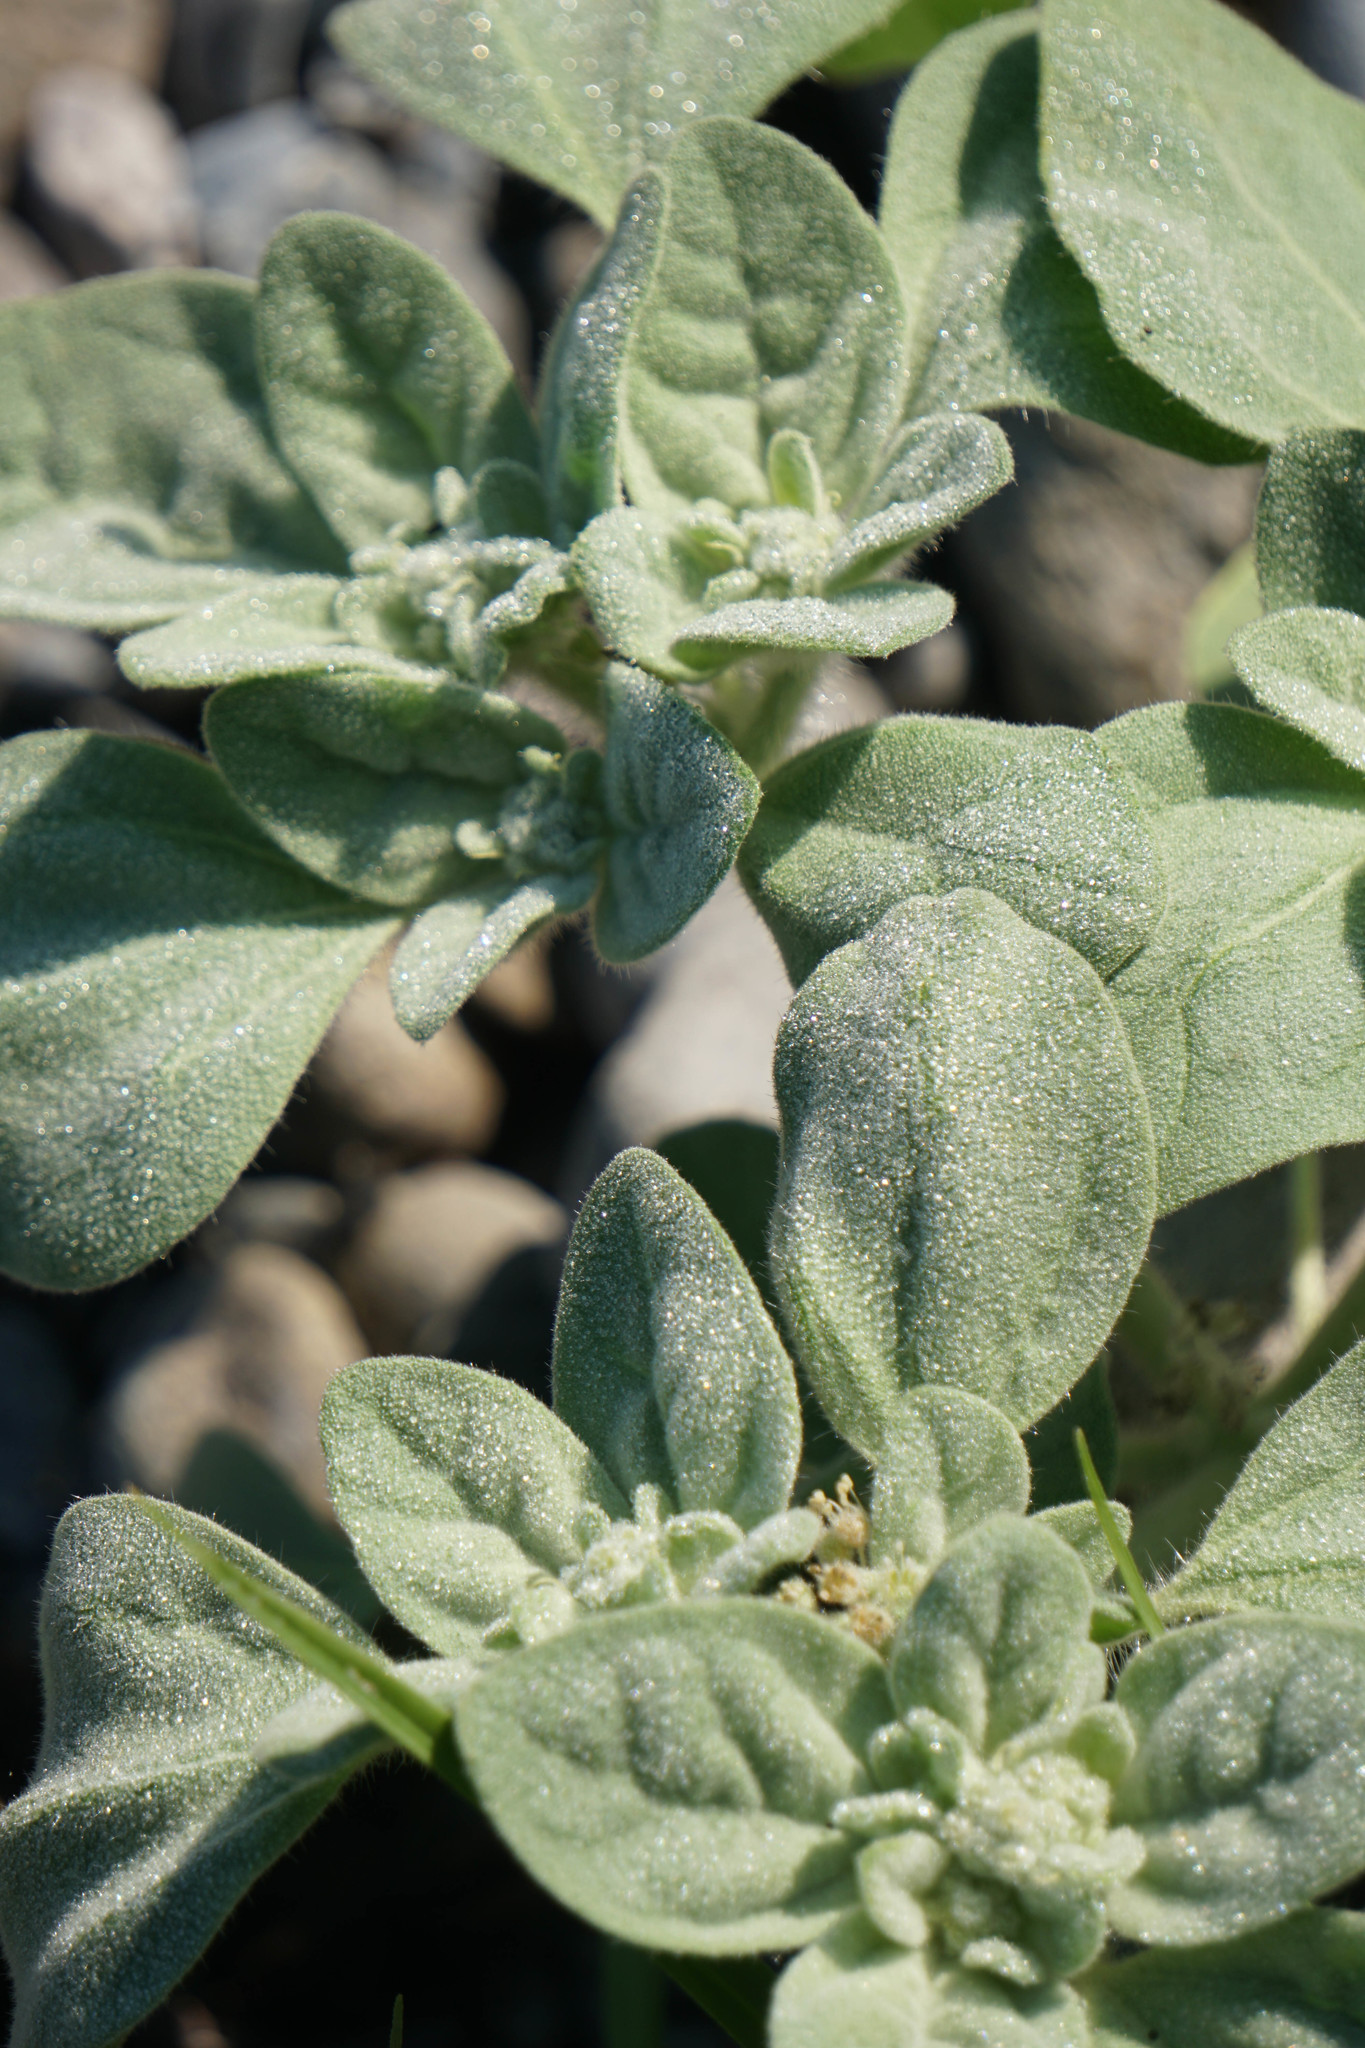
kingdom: Plantae
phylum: Tracheophyta
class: Magnoliopsida
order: Malpighiales
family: Euphorbiaceae
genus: Croton
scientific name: Croton setiger
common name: Dove weed
